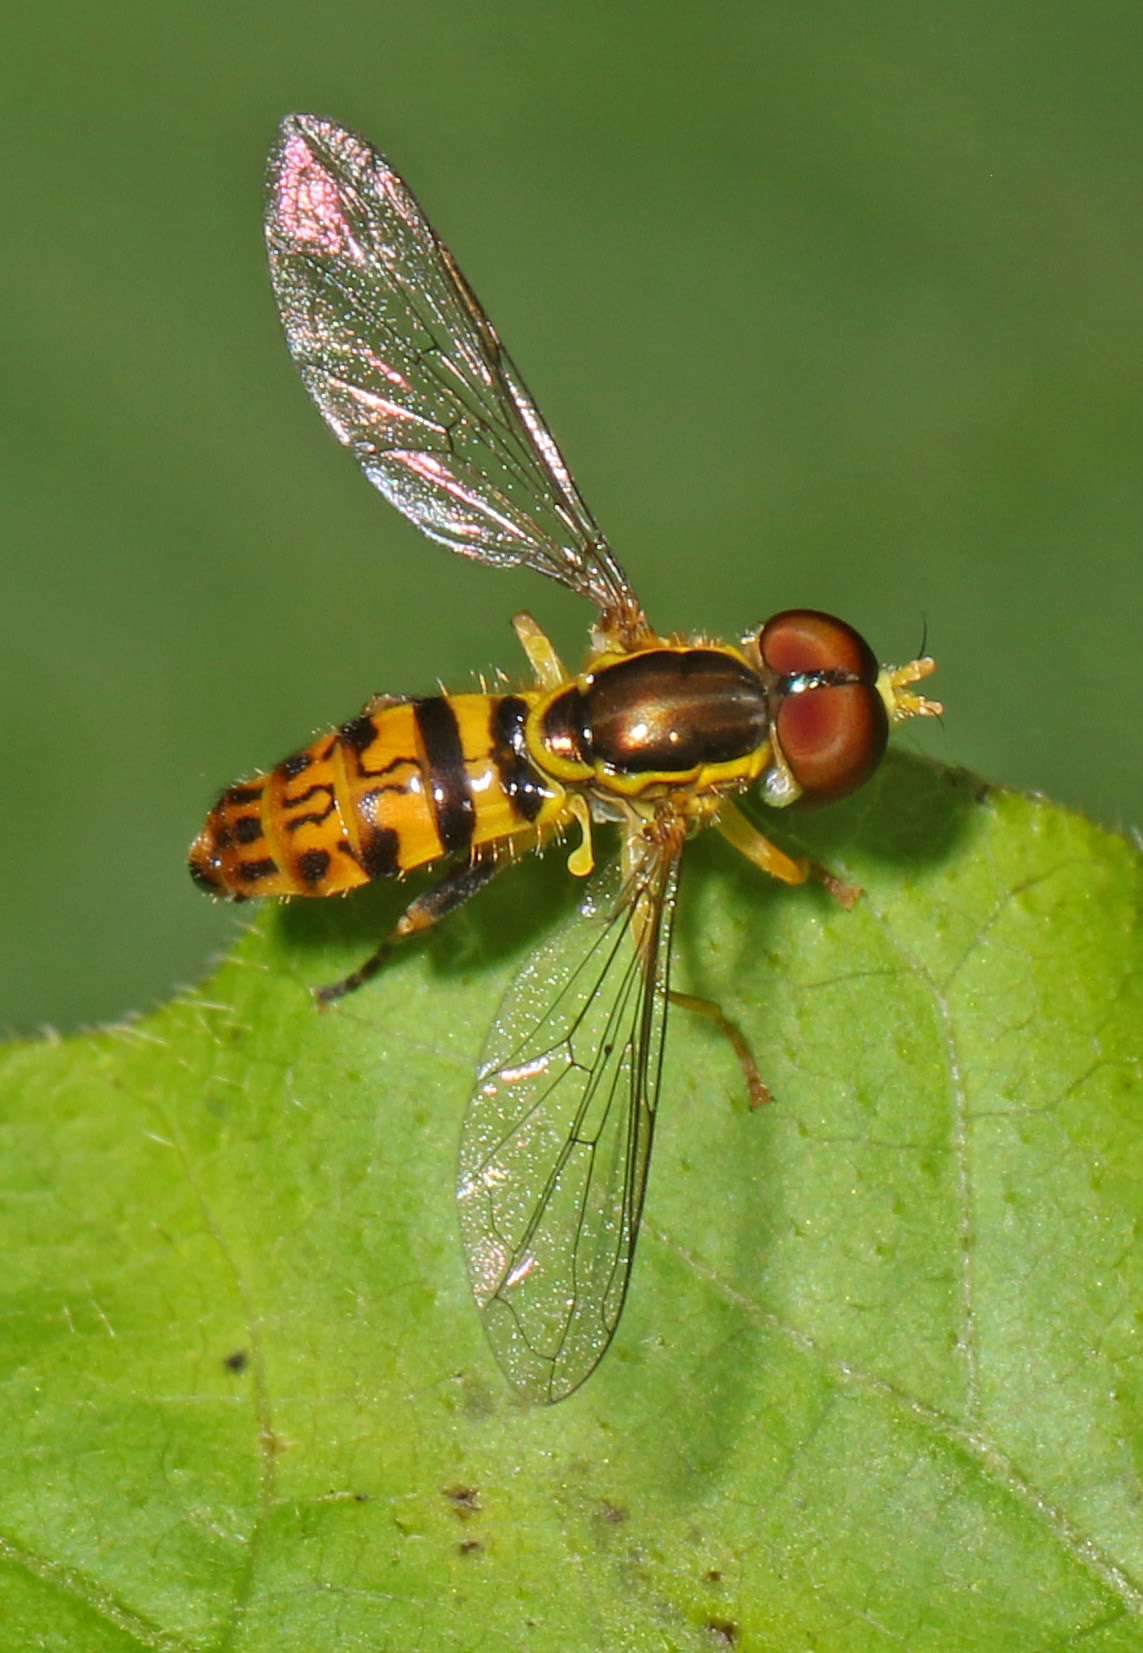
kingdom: Animalia
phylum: Arthropoda
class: Insecta
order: Diptera
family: Syrphidae
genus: Toxomerus
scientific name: Toxomerus geminatus
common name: Eastern calligrapher
